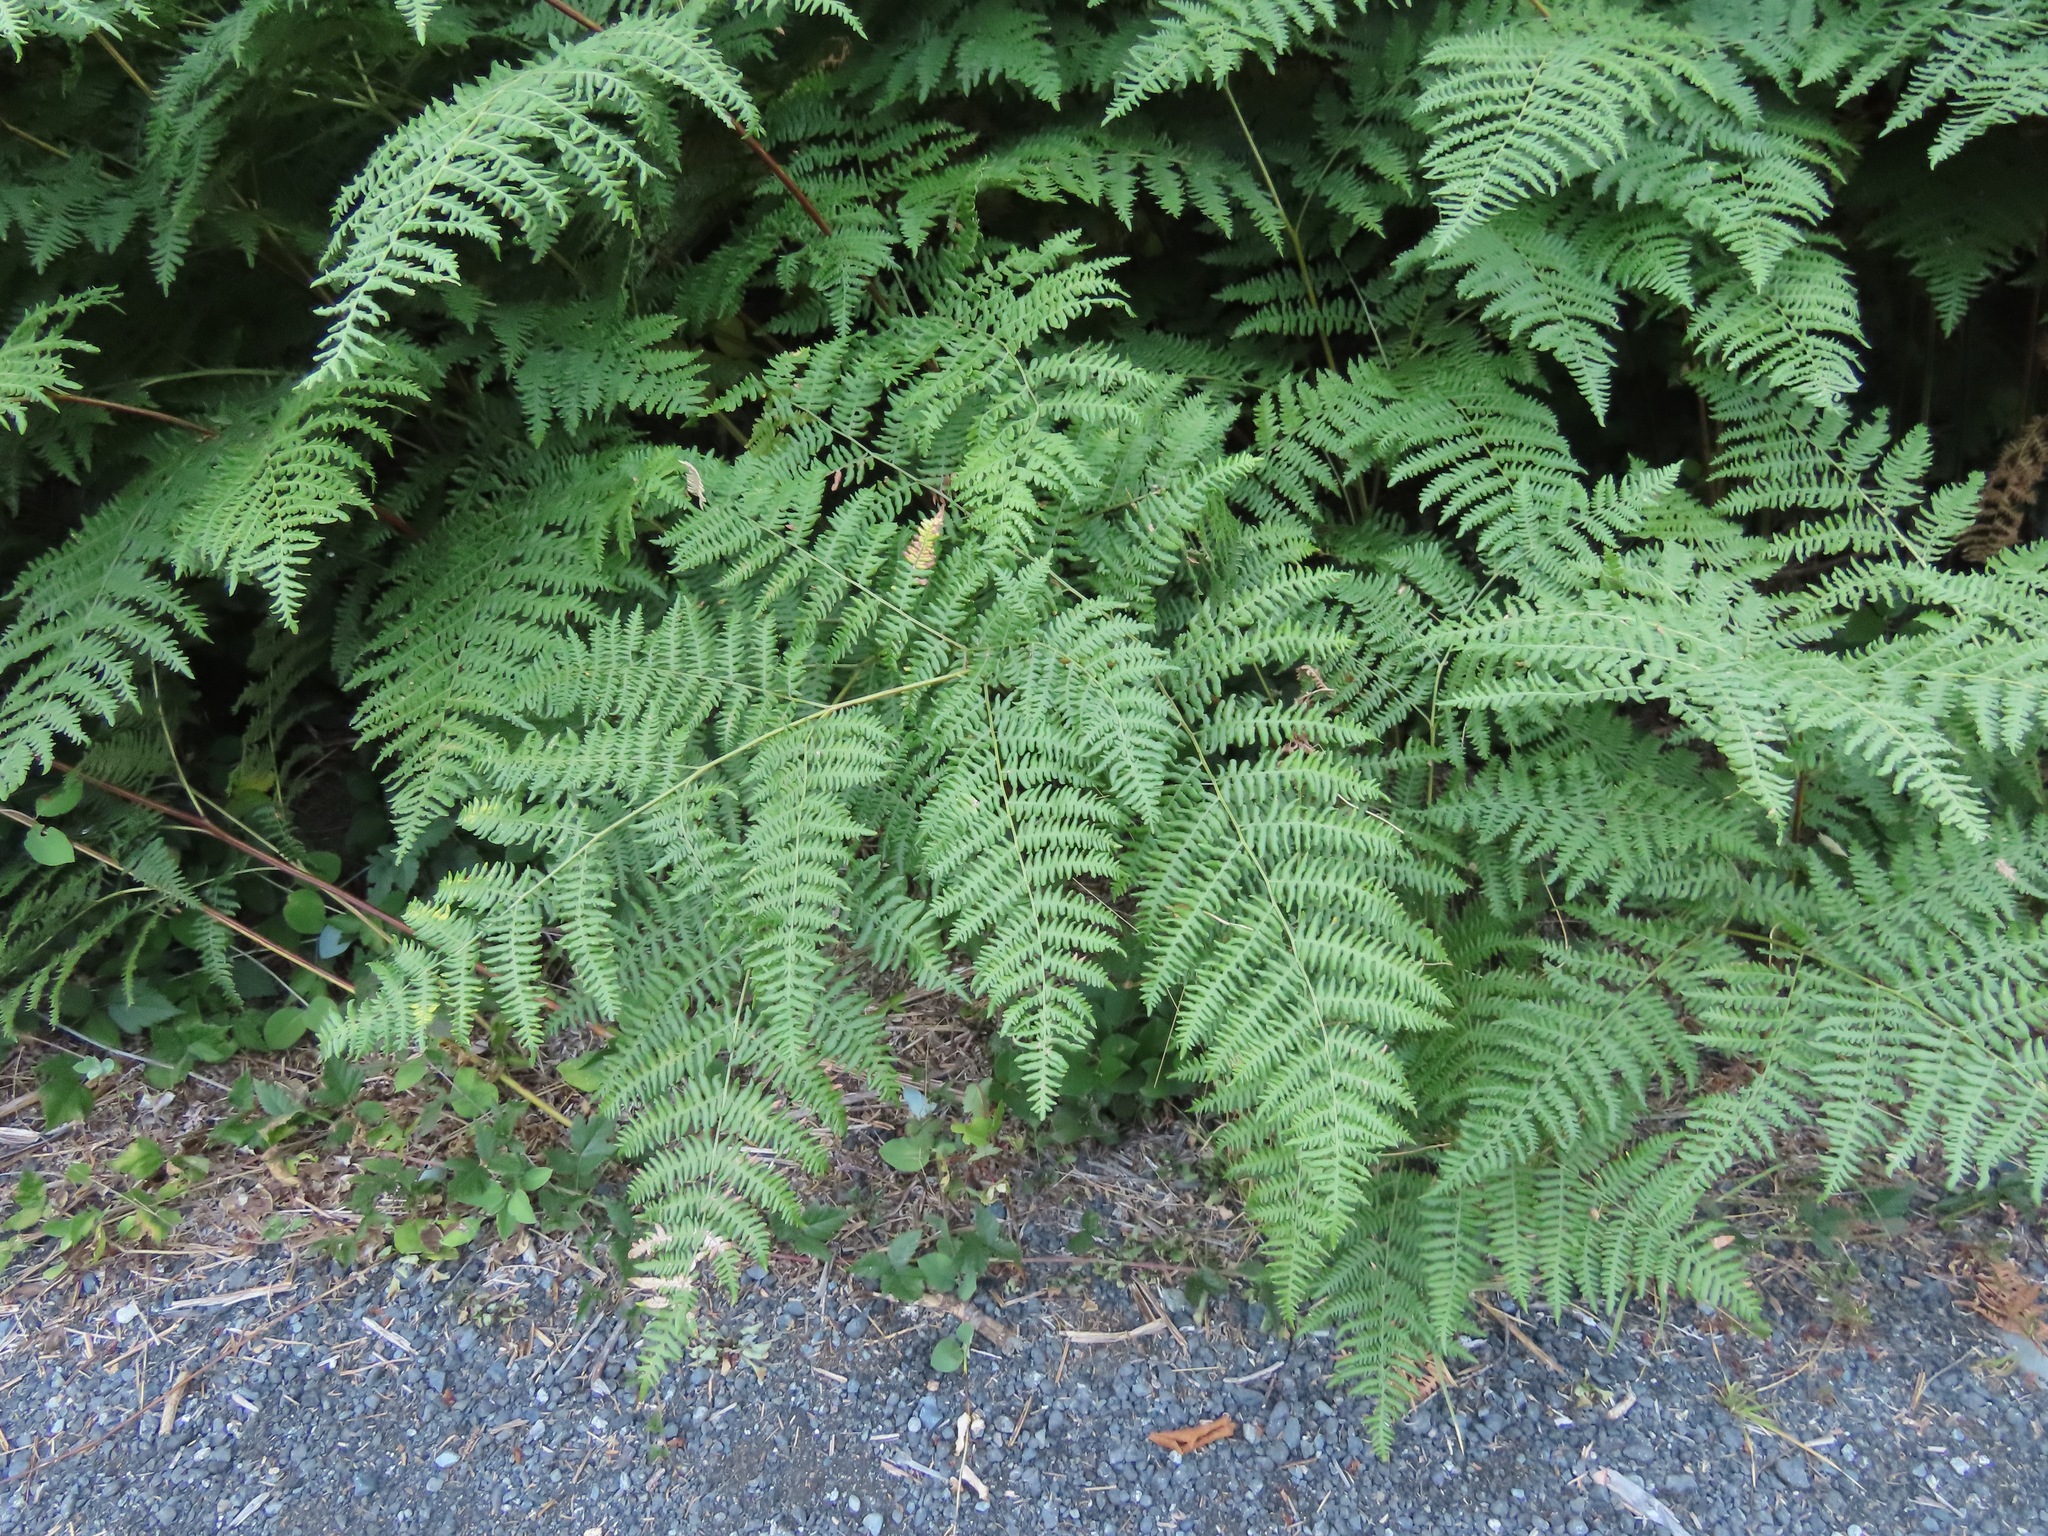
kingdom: Plantae
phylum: Tracheophyta
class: Polypodiopsida
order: Polypodiales
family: Dennstaedtiaceae
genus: Pteridium
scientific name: Pteridium aquilinum
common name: Bracken
